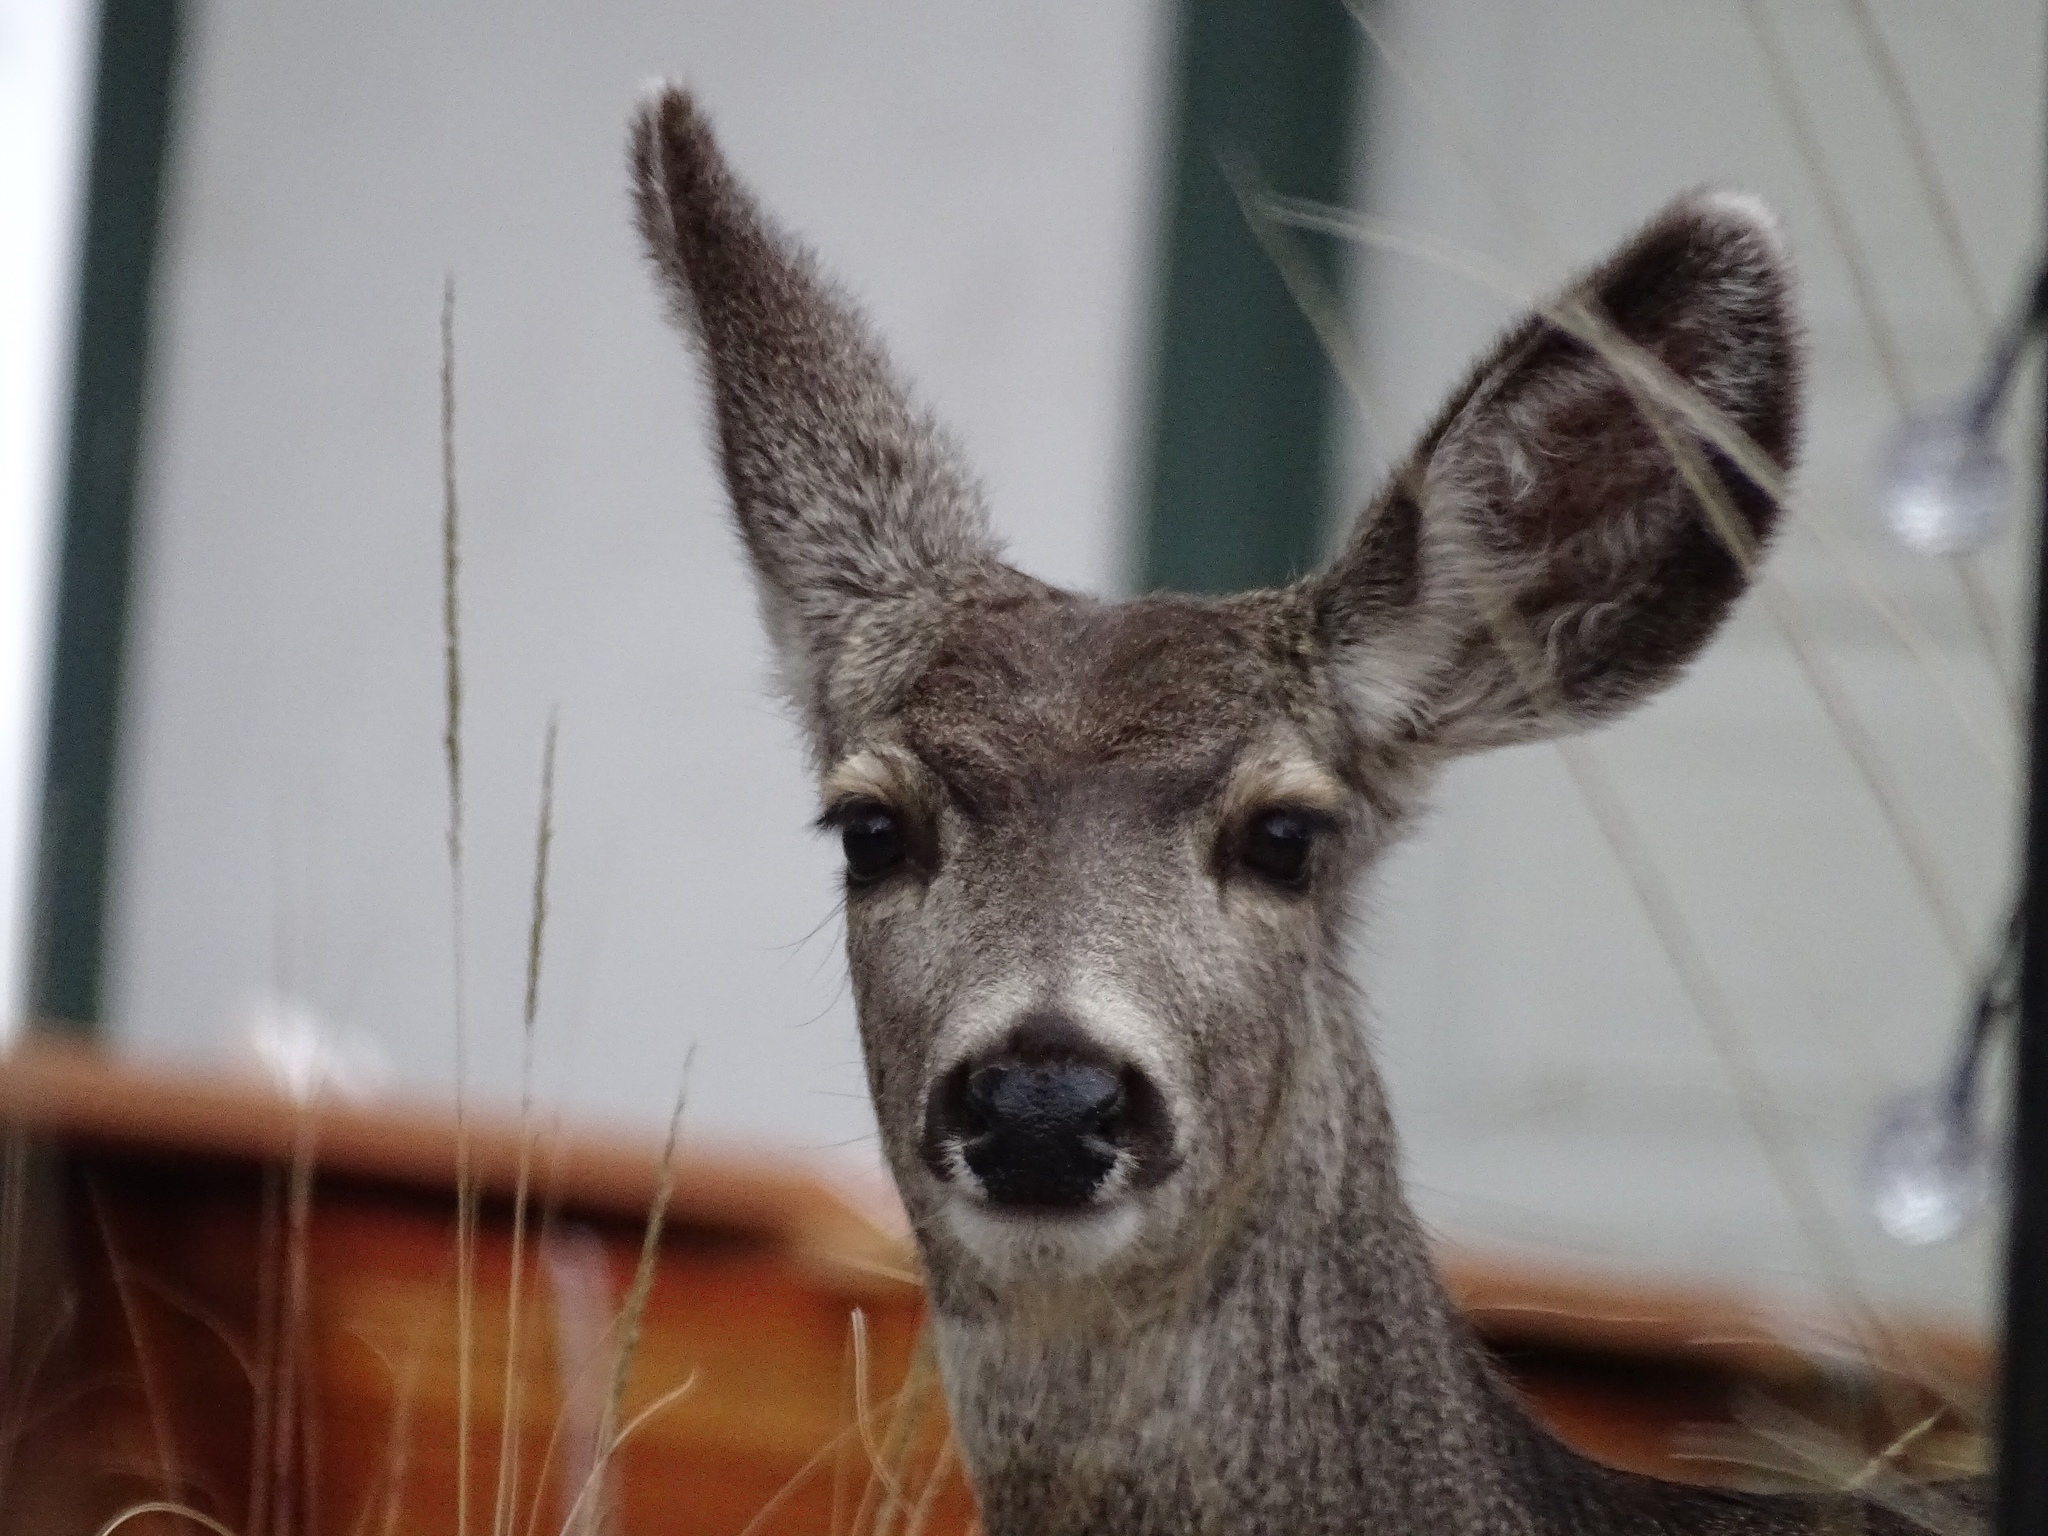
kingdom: Animalia
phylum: Chordata
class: Mammalia
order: Artiodactyla
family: Cervidae
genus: Odocoileus
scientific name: Odocoileus hemionus
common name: Mule deer
